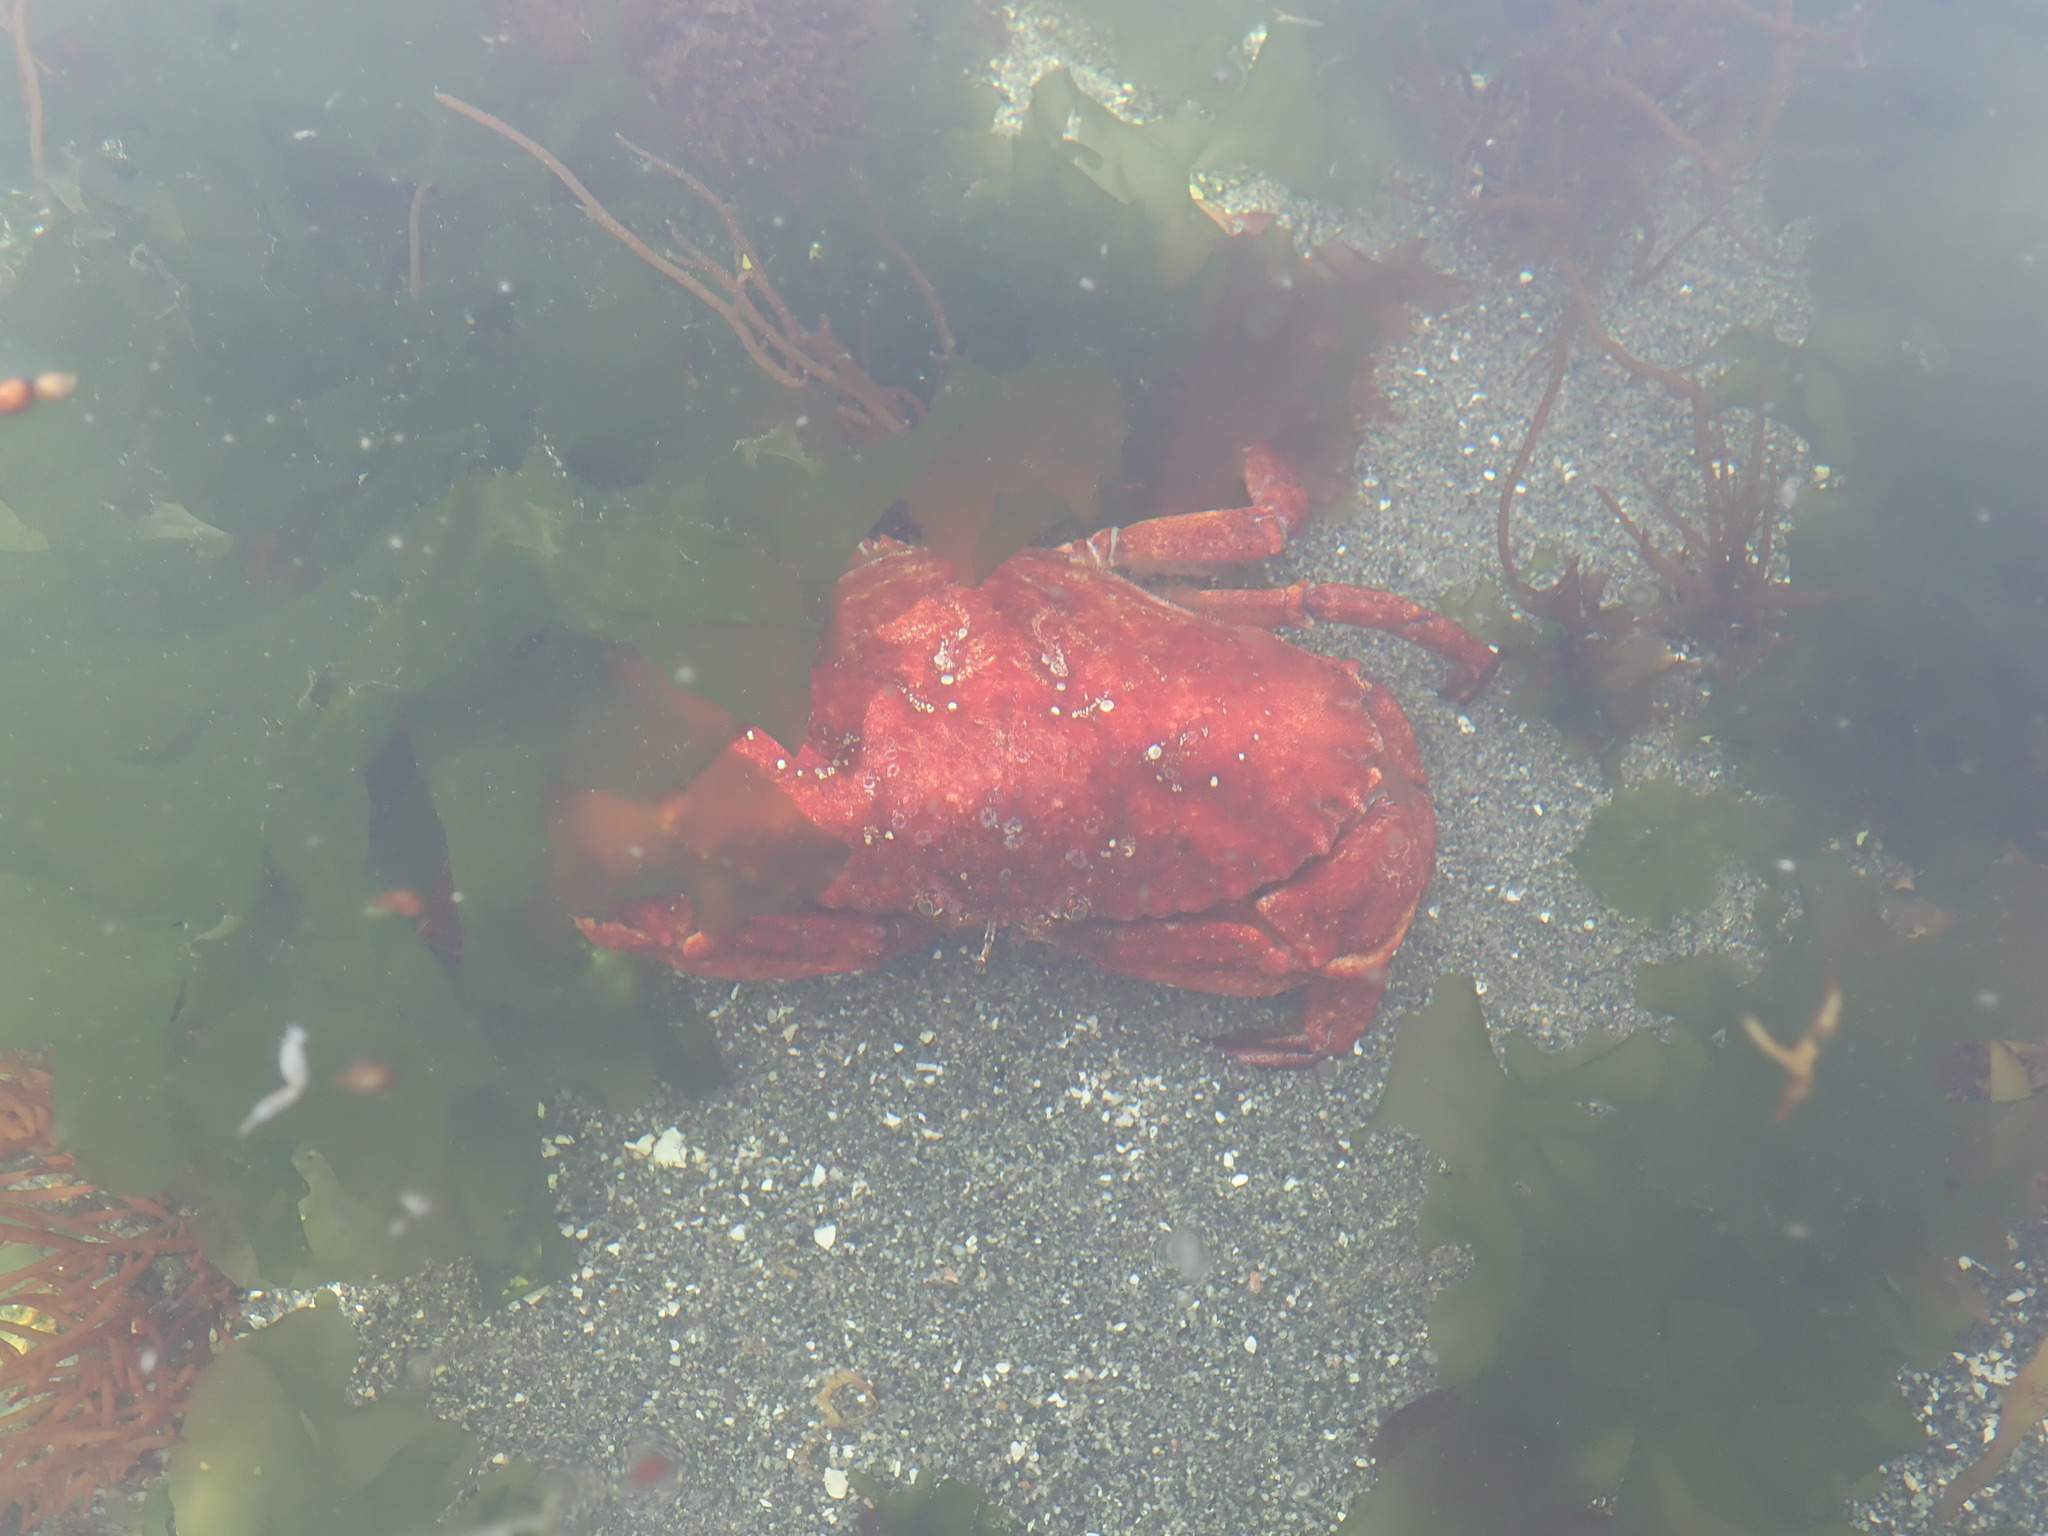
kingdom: Animalia
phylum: Arthropoda
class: Malacostraca
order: Decapoda
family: Cancridae
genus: Cancer
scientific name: Cancer productus
